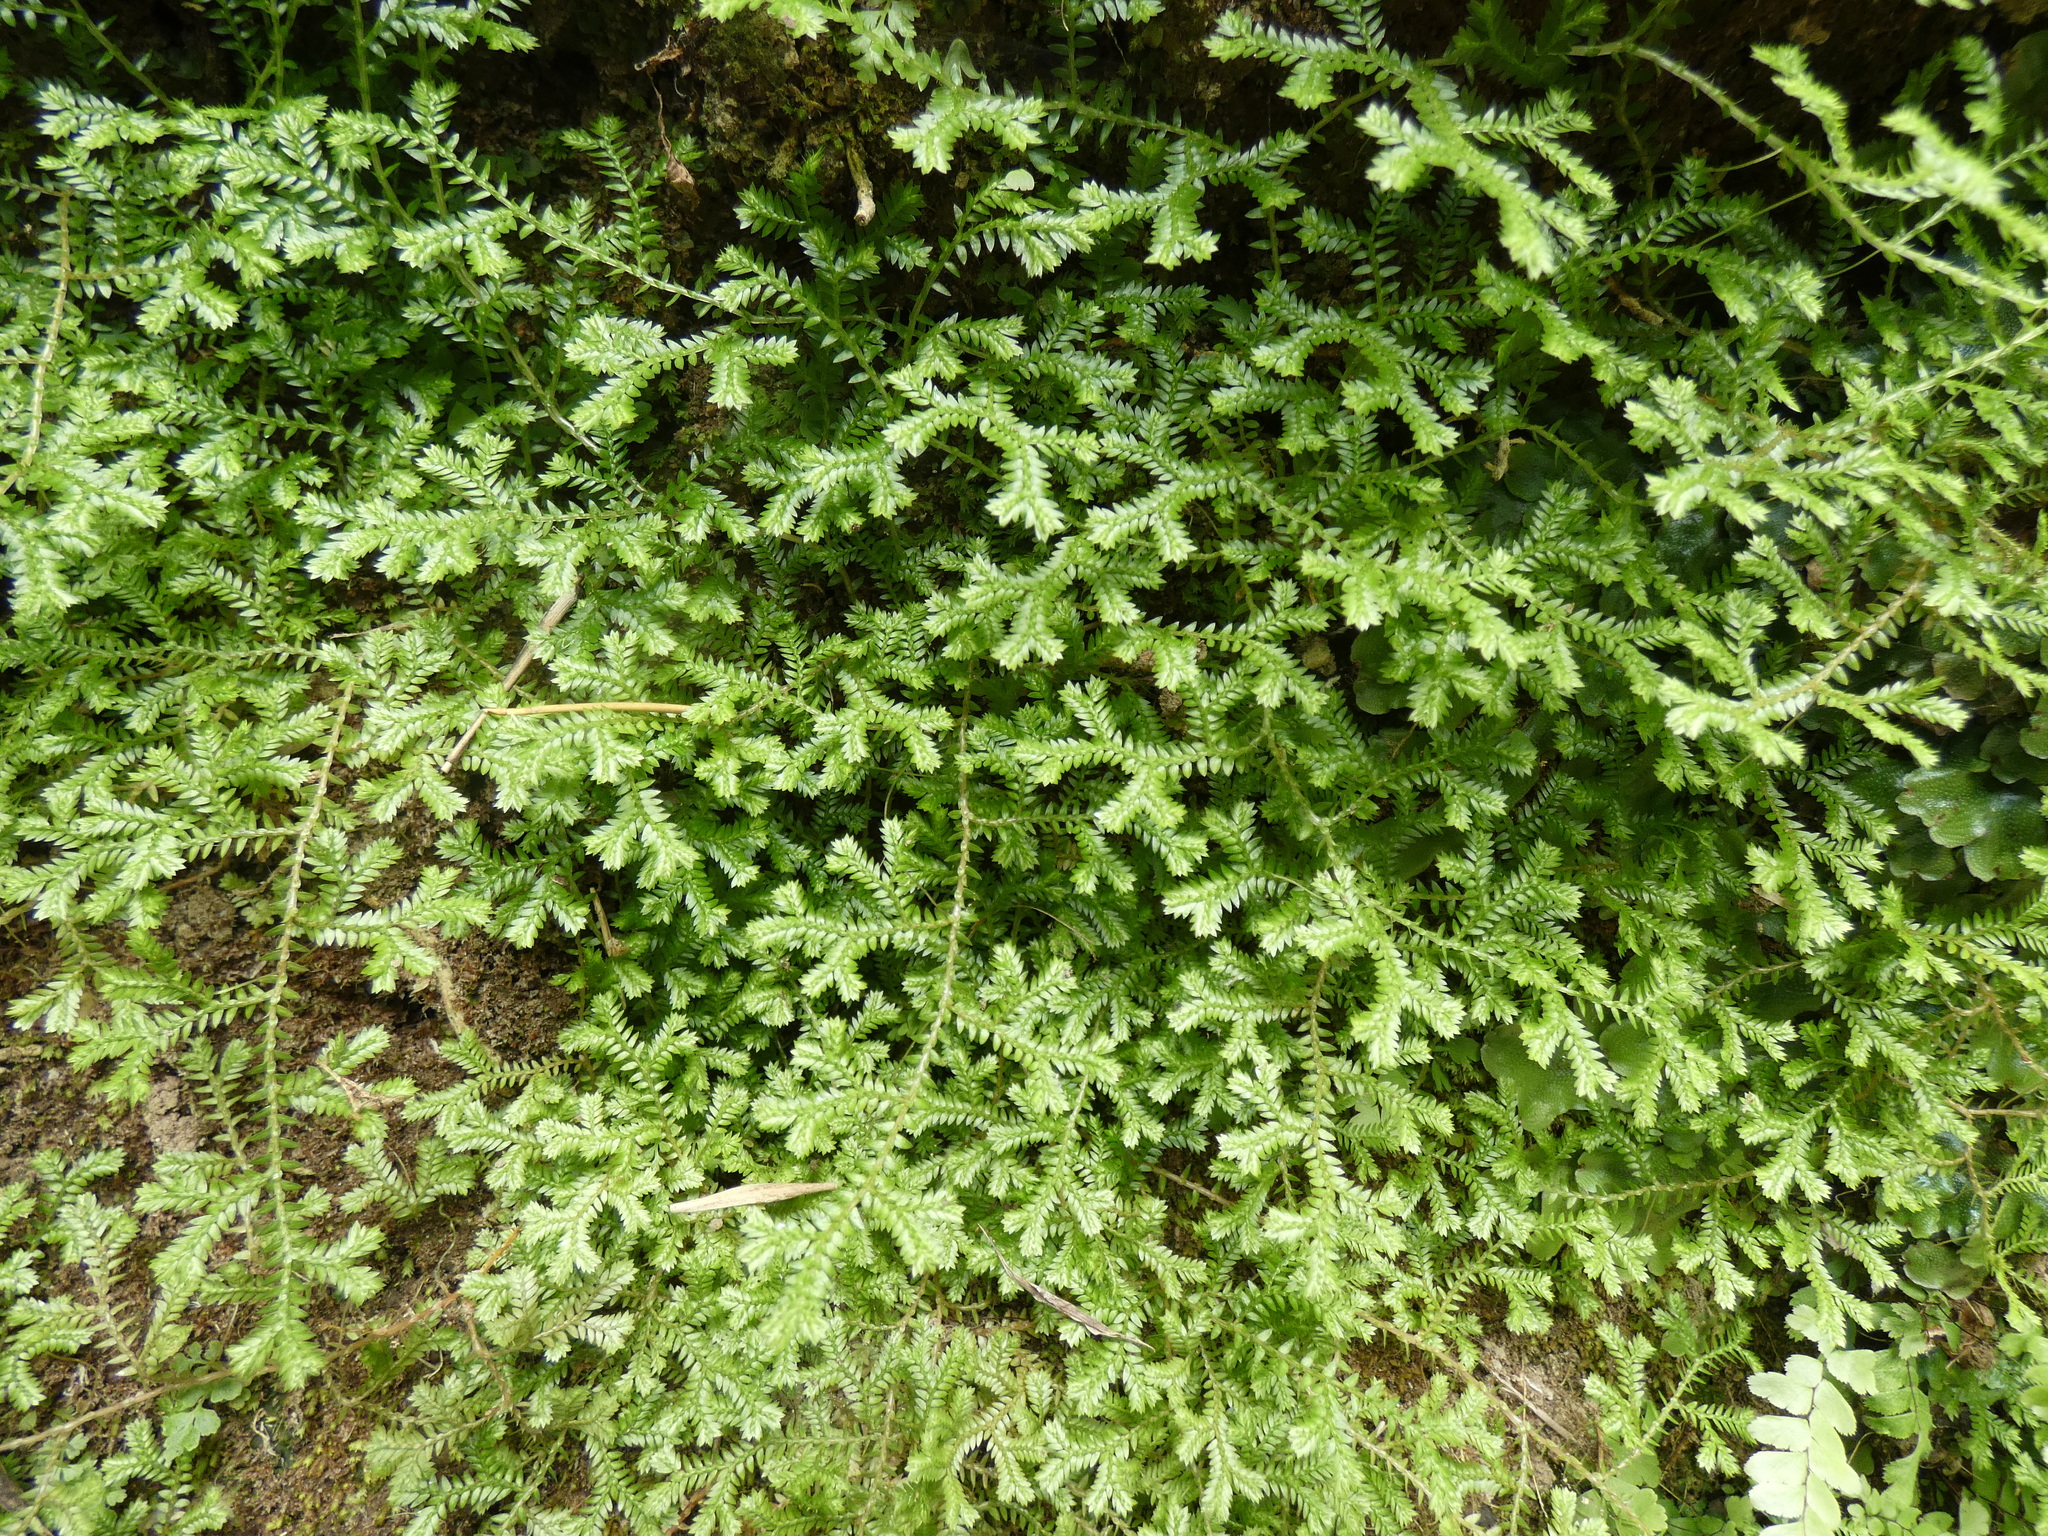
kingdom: Plantae
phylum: Tracheophyta
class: Lycopodiopsida
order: Selaginellales
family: Selaginellaceae
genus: Selaginella
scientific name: Selaginella kraussiana
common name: Krauss' spikemoss
